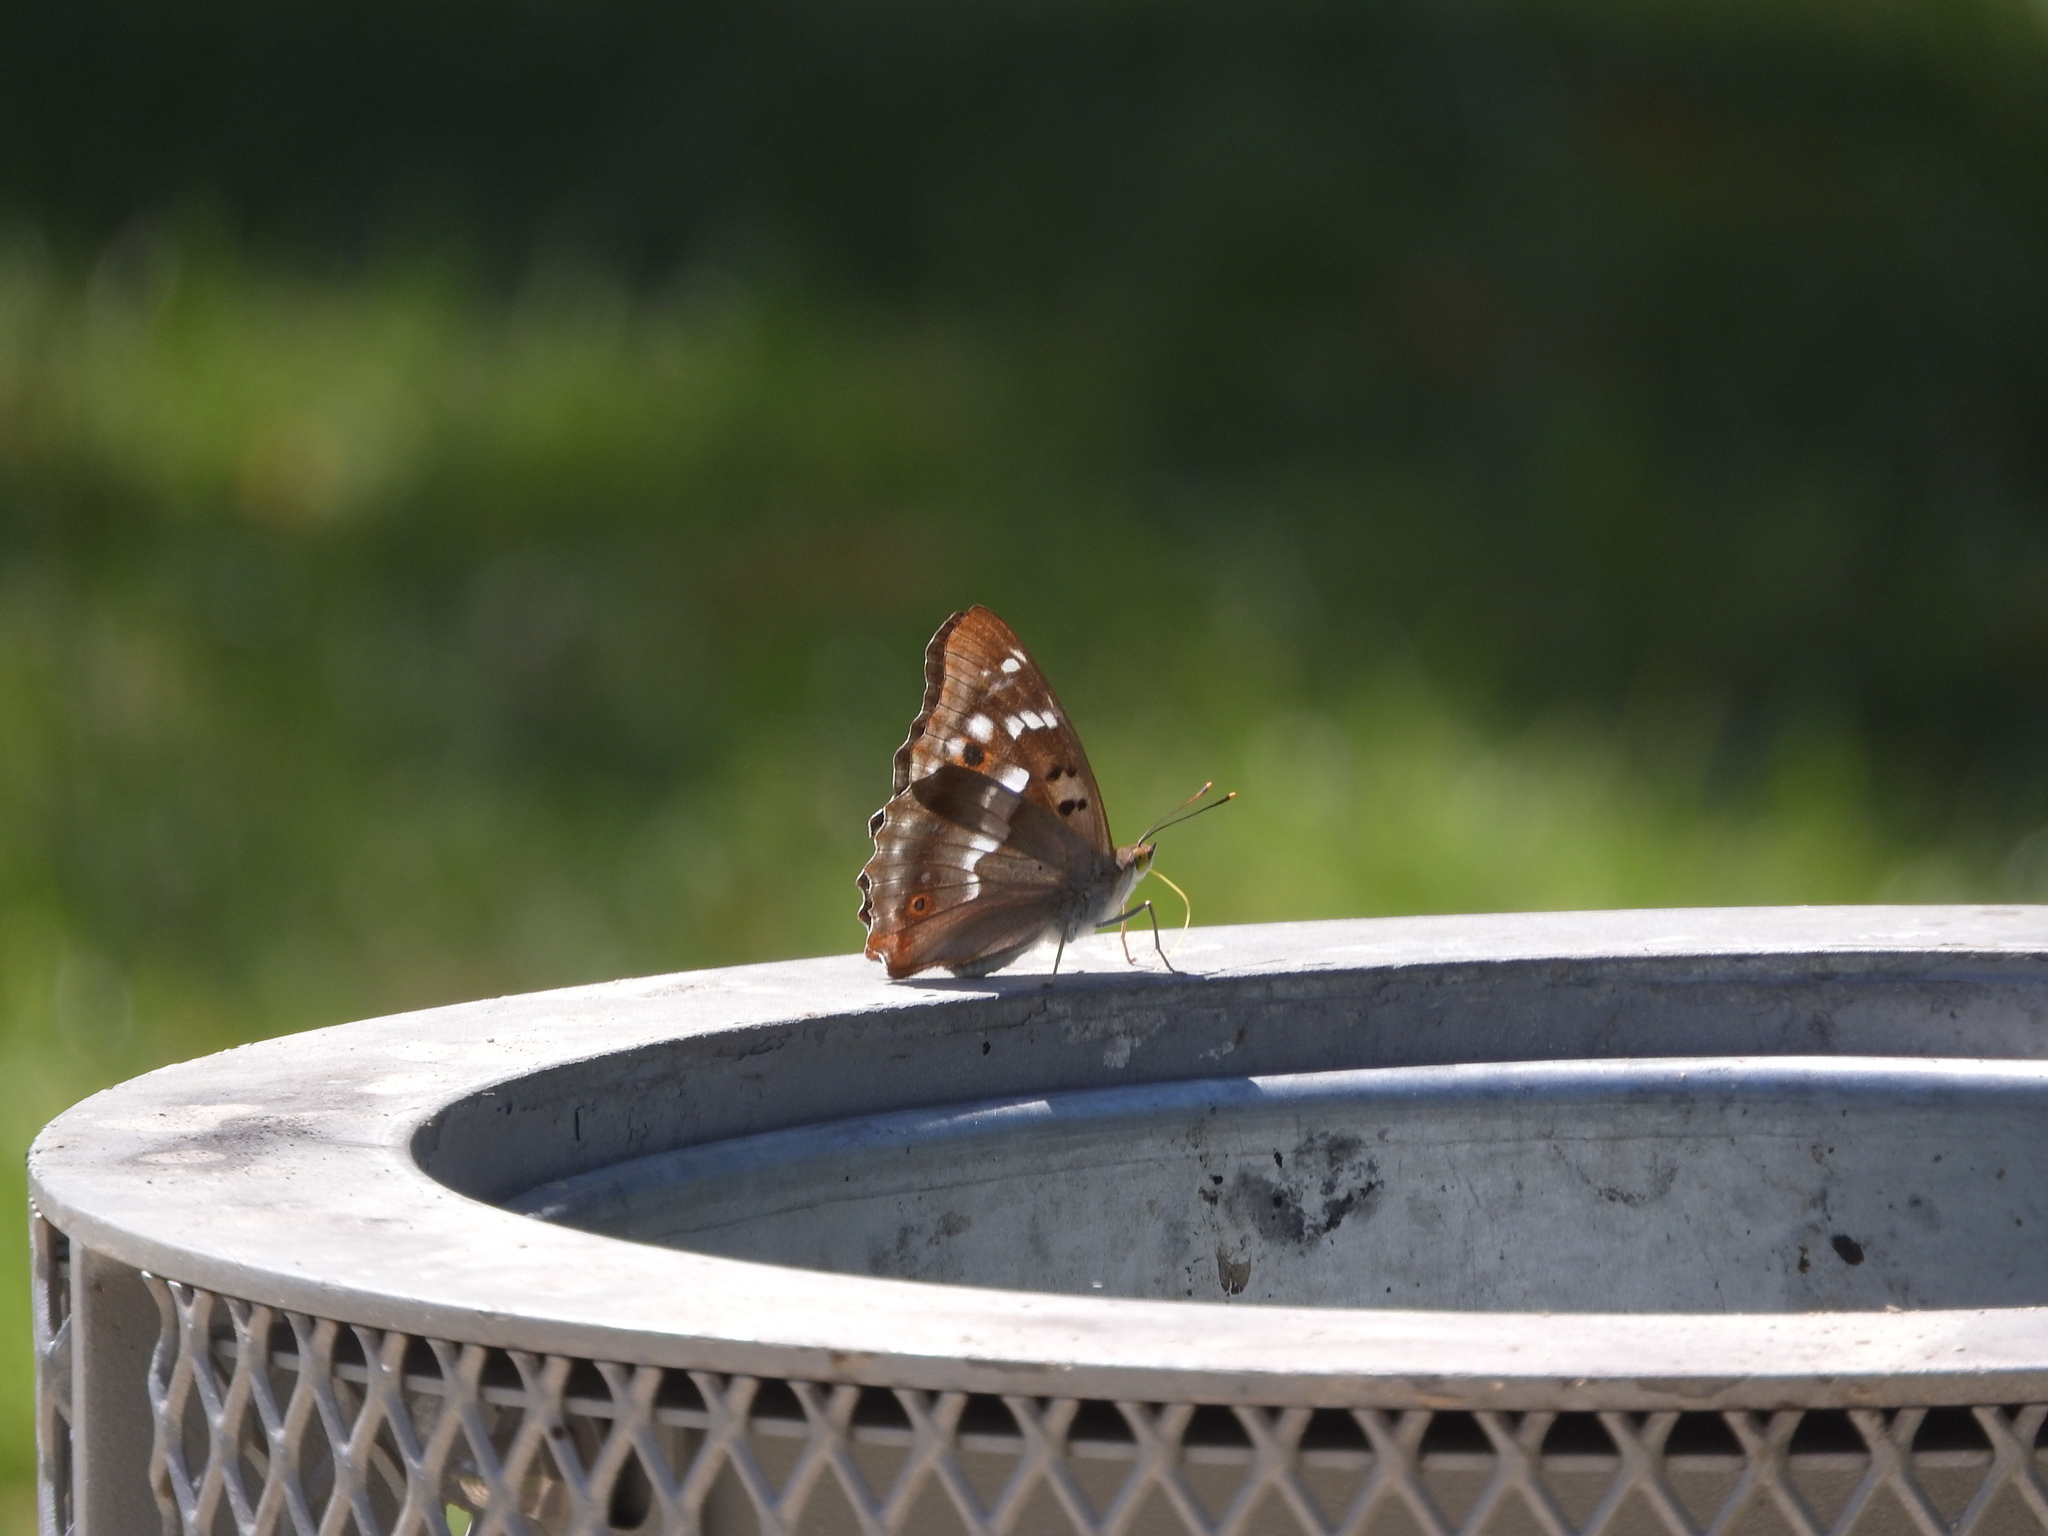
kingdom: Animalia
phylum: Arthropoda
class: Insecta
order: Lepidoptera
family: Nymphalidae
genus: Apatura
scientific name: Apatura ilia
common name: Lesser purple emperor
